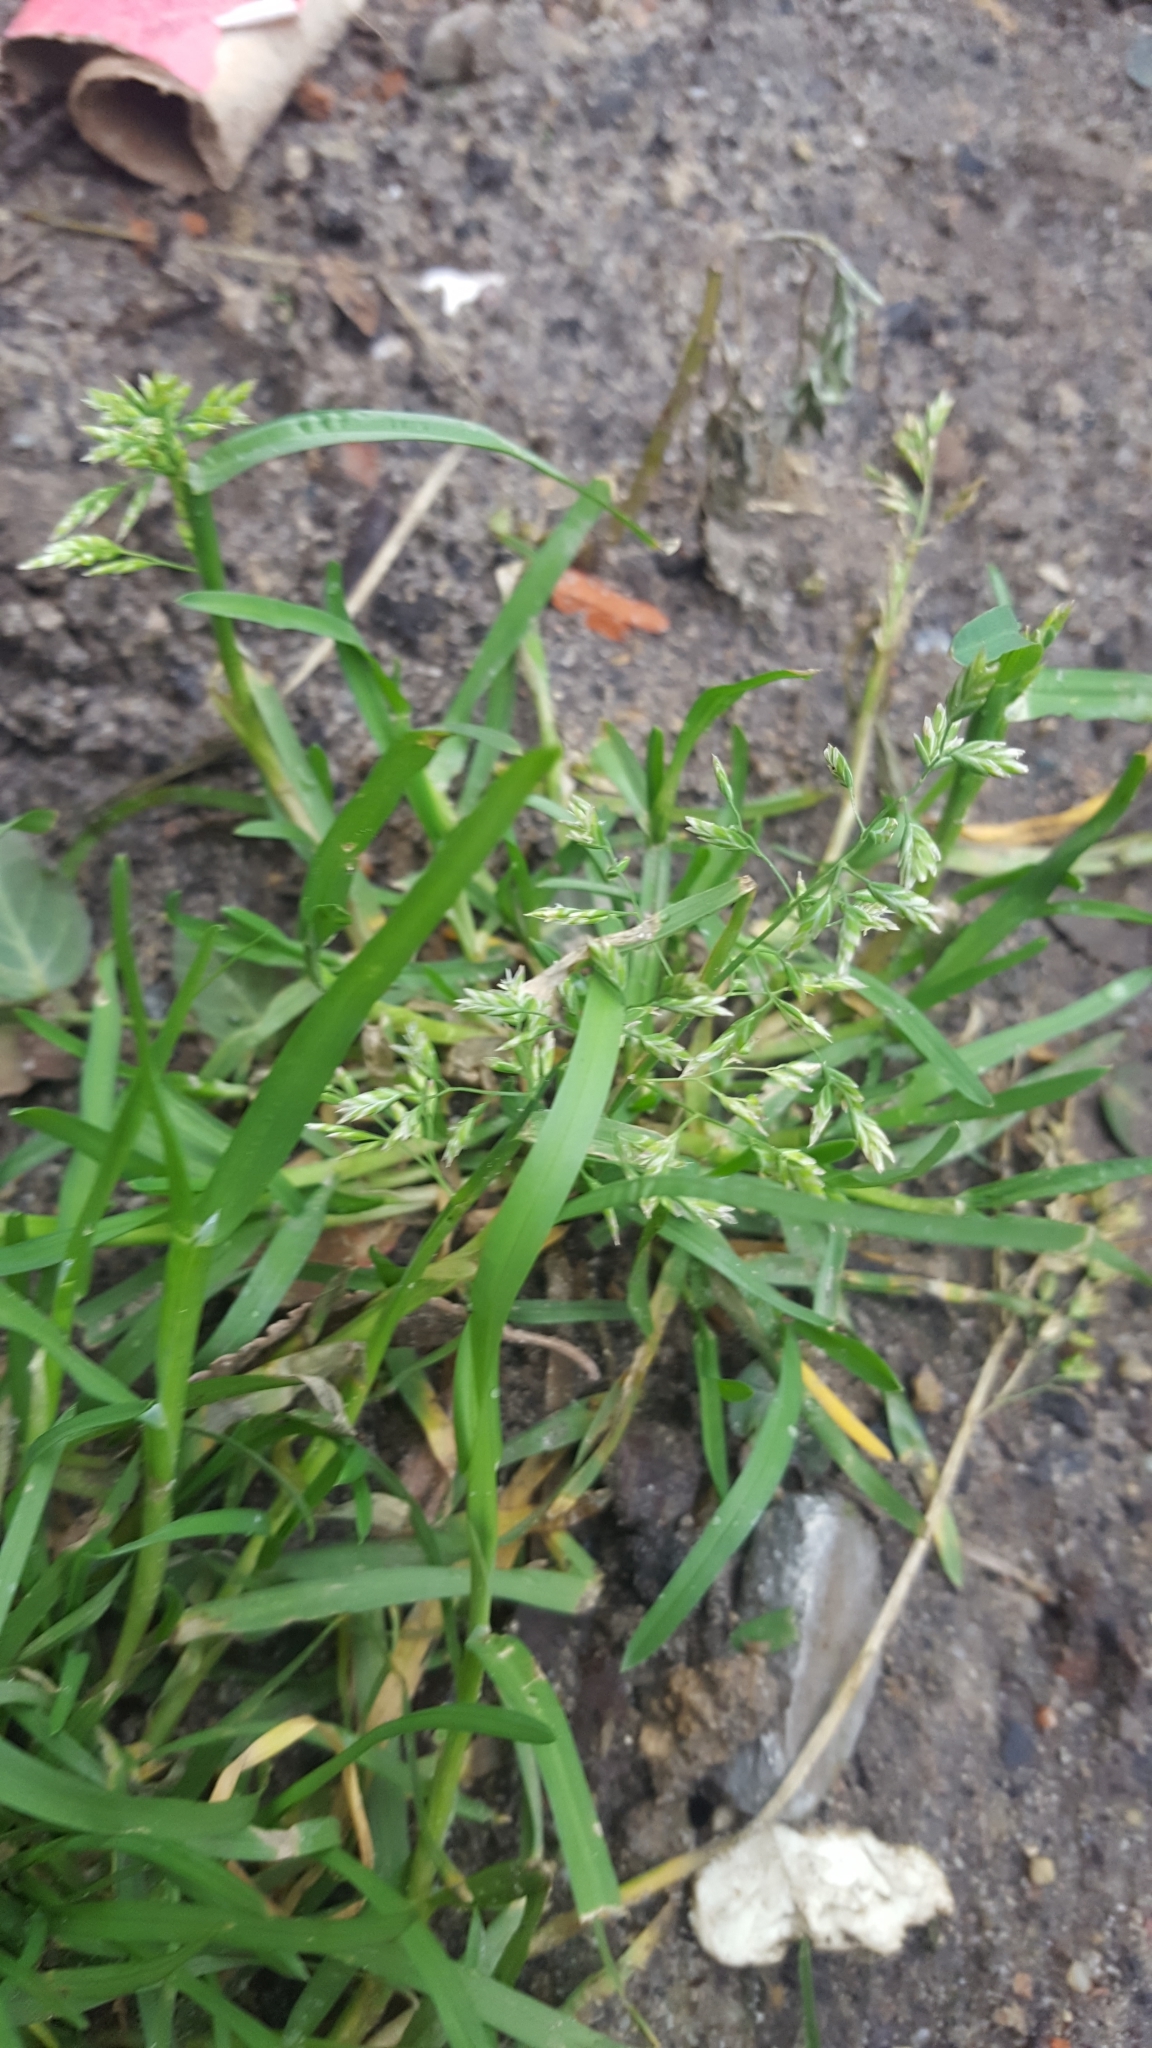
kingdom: Plantae
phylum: Tracheophyta
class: Liliopsida
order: Poales
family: Poaceae
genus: Poa
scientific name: Poa annua
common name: Annual bluegrass
